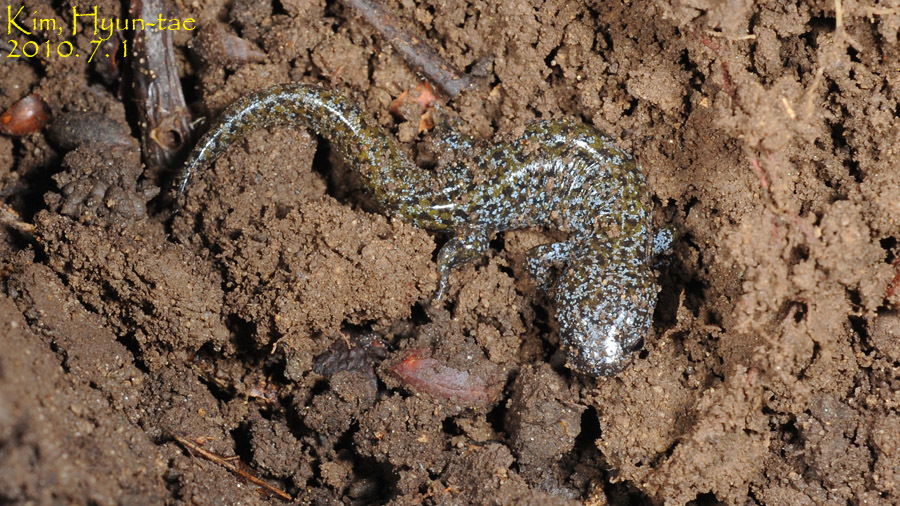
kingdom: Animalia
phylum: Chordata
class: Amphibia
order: Caudata
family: Hynobiidae
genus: Hynobius
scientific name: Hynobius leechii
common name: Gensan salamander
